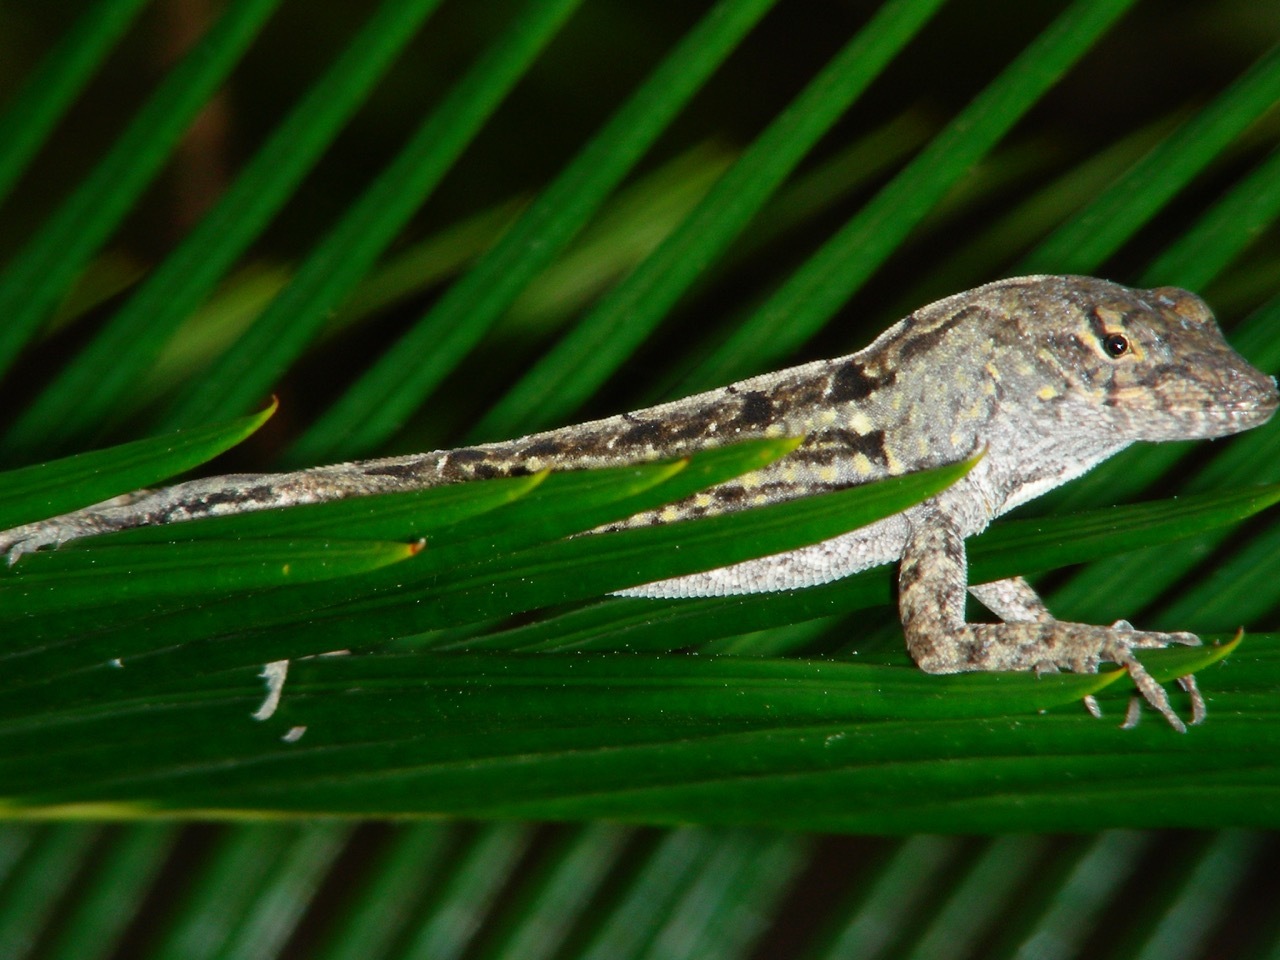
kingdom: Animalia
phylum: Chordata
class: Squamata
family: Dactyloidae
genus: Anolis
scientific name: Anolis sagrei
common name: Brown anole
